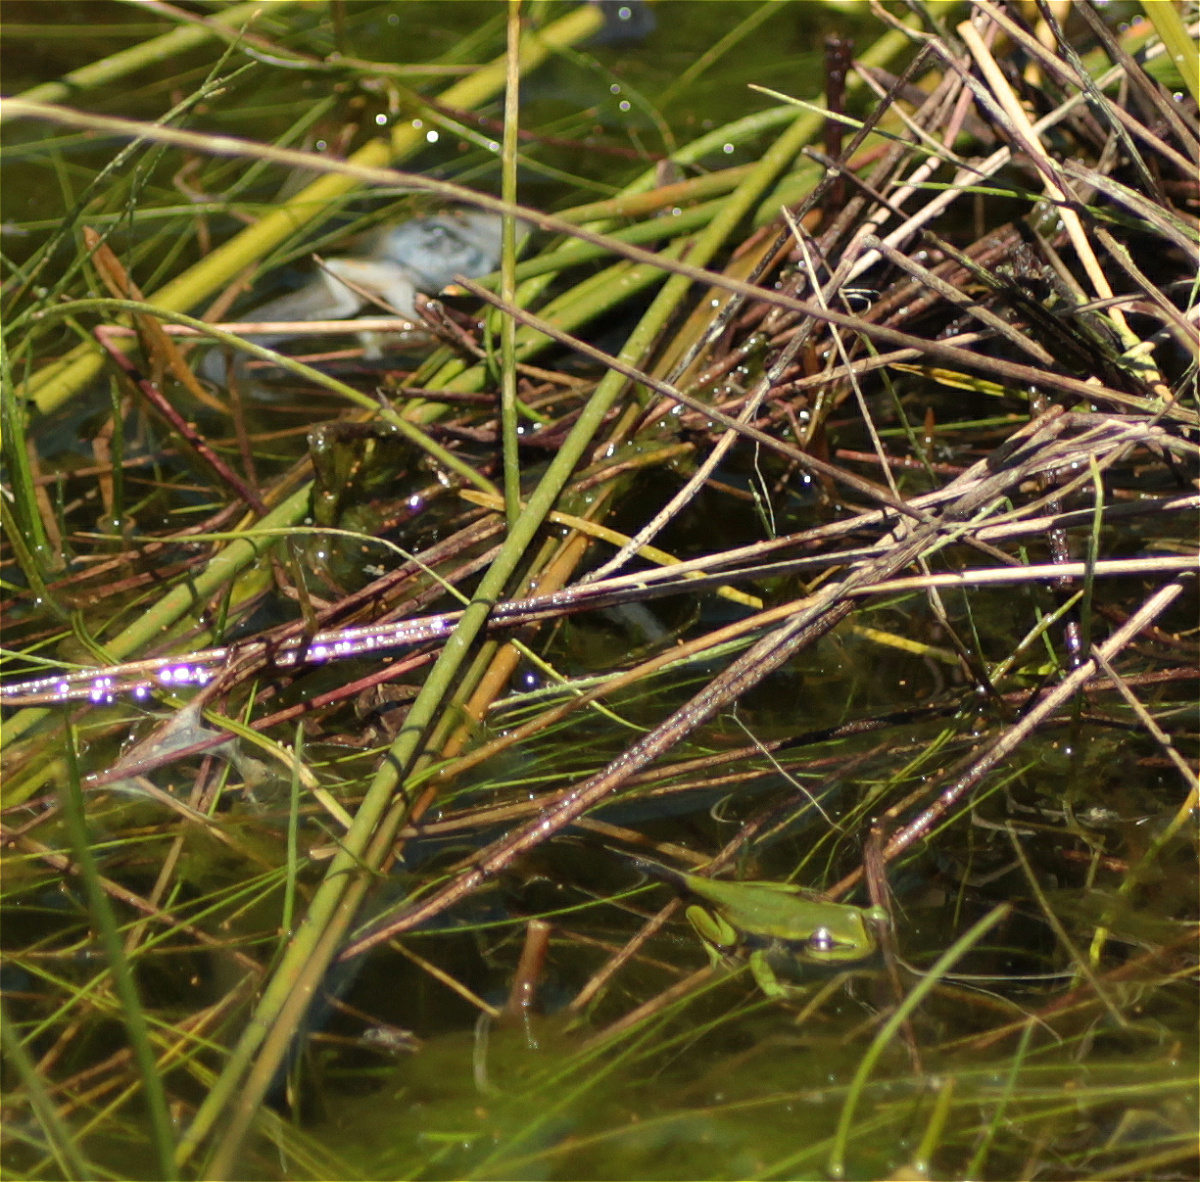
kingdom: Animalia
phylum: Chordata
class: Amphibia
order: Anura
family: Hylidae
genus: Dendropsophus
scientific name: Dendropsophus molitor
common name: Green dotted treefrog
